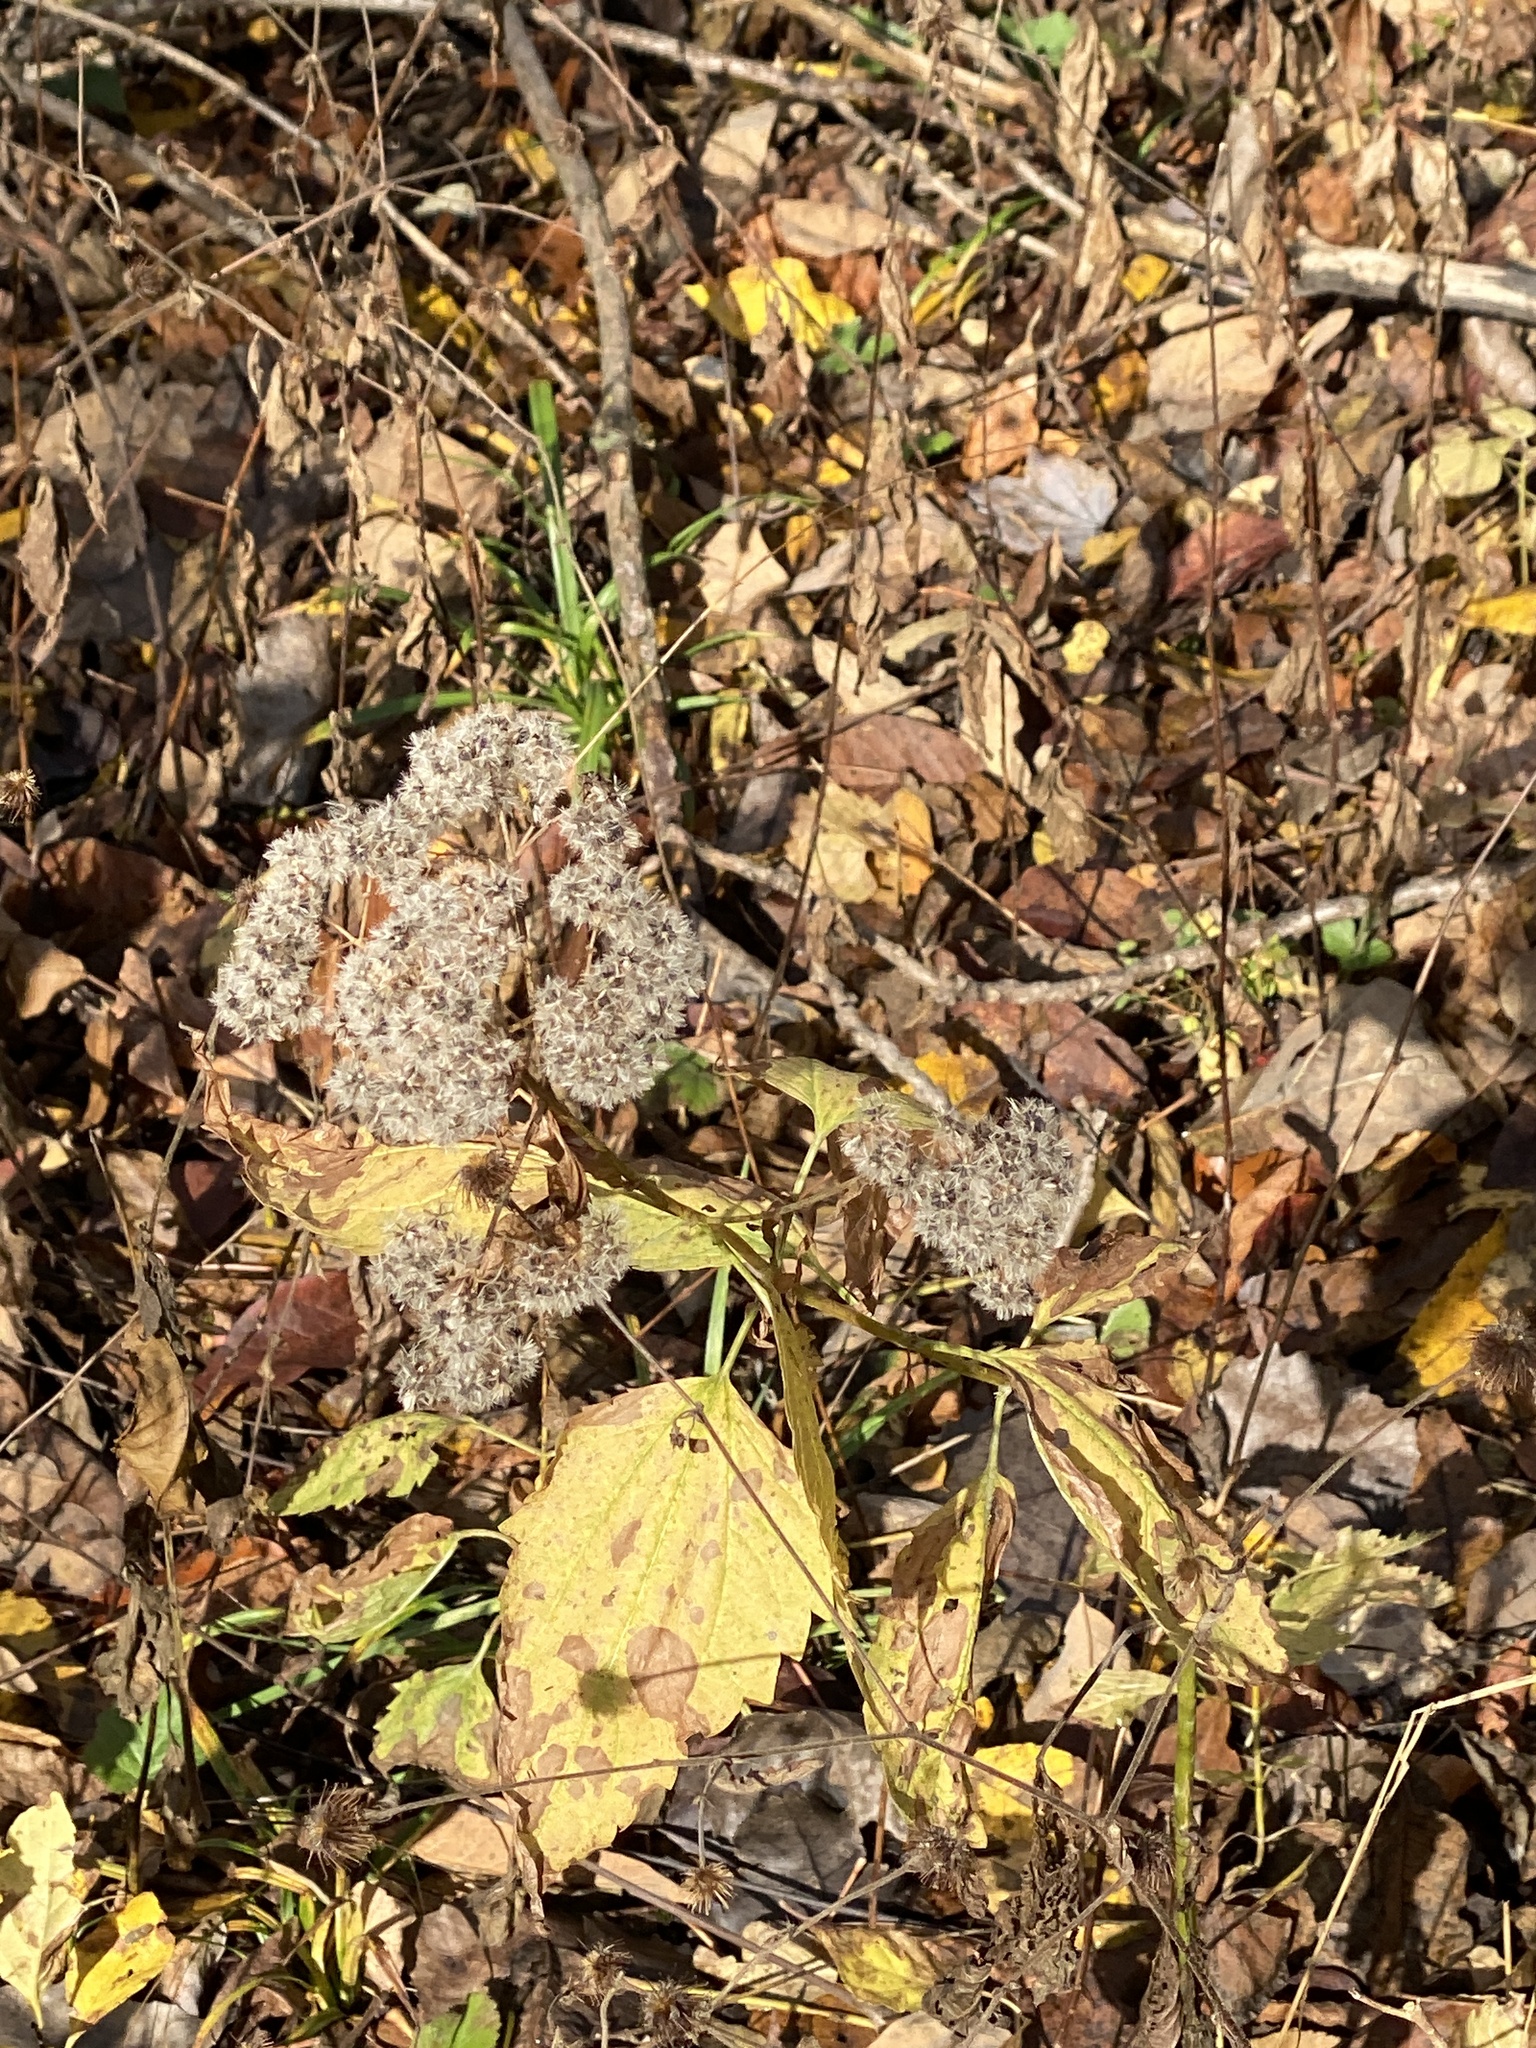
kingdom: Plantae
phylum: Tracheophyta
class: Magnoliopsida
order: Asterales
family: Asteraceae
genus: Ageratina
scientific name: Ageratina altissima
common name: White snakeroot
